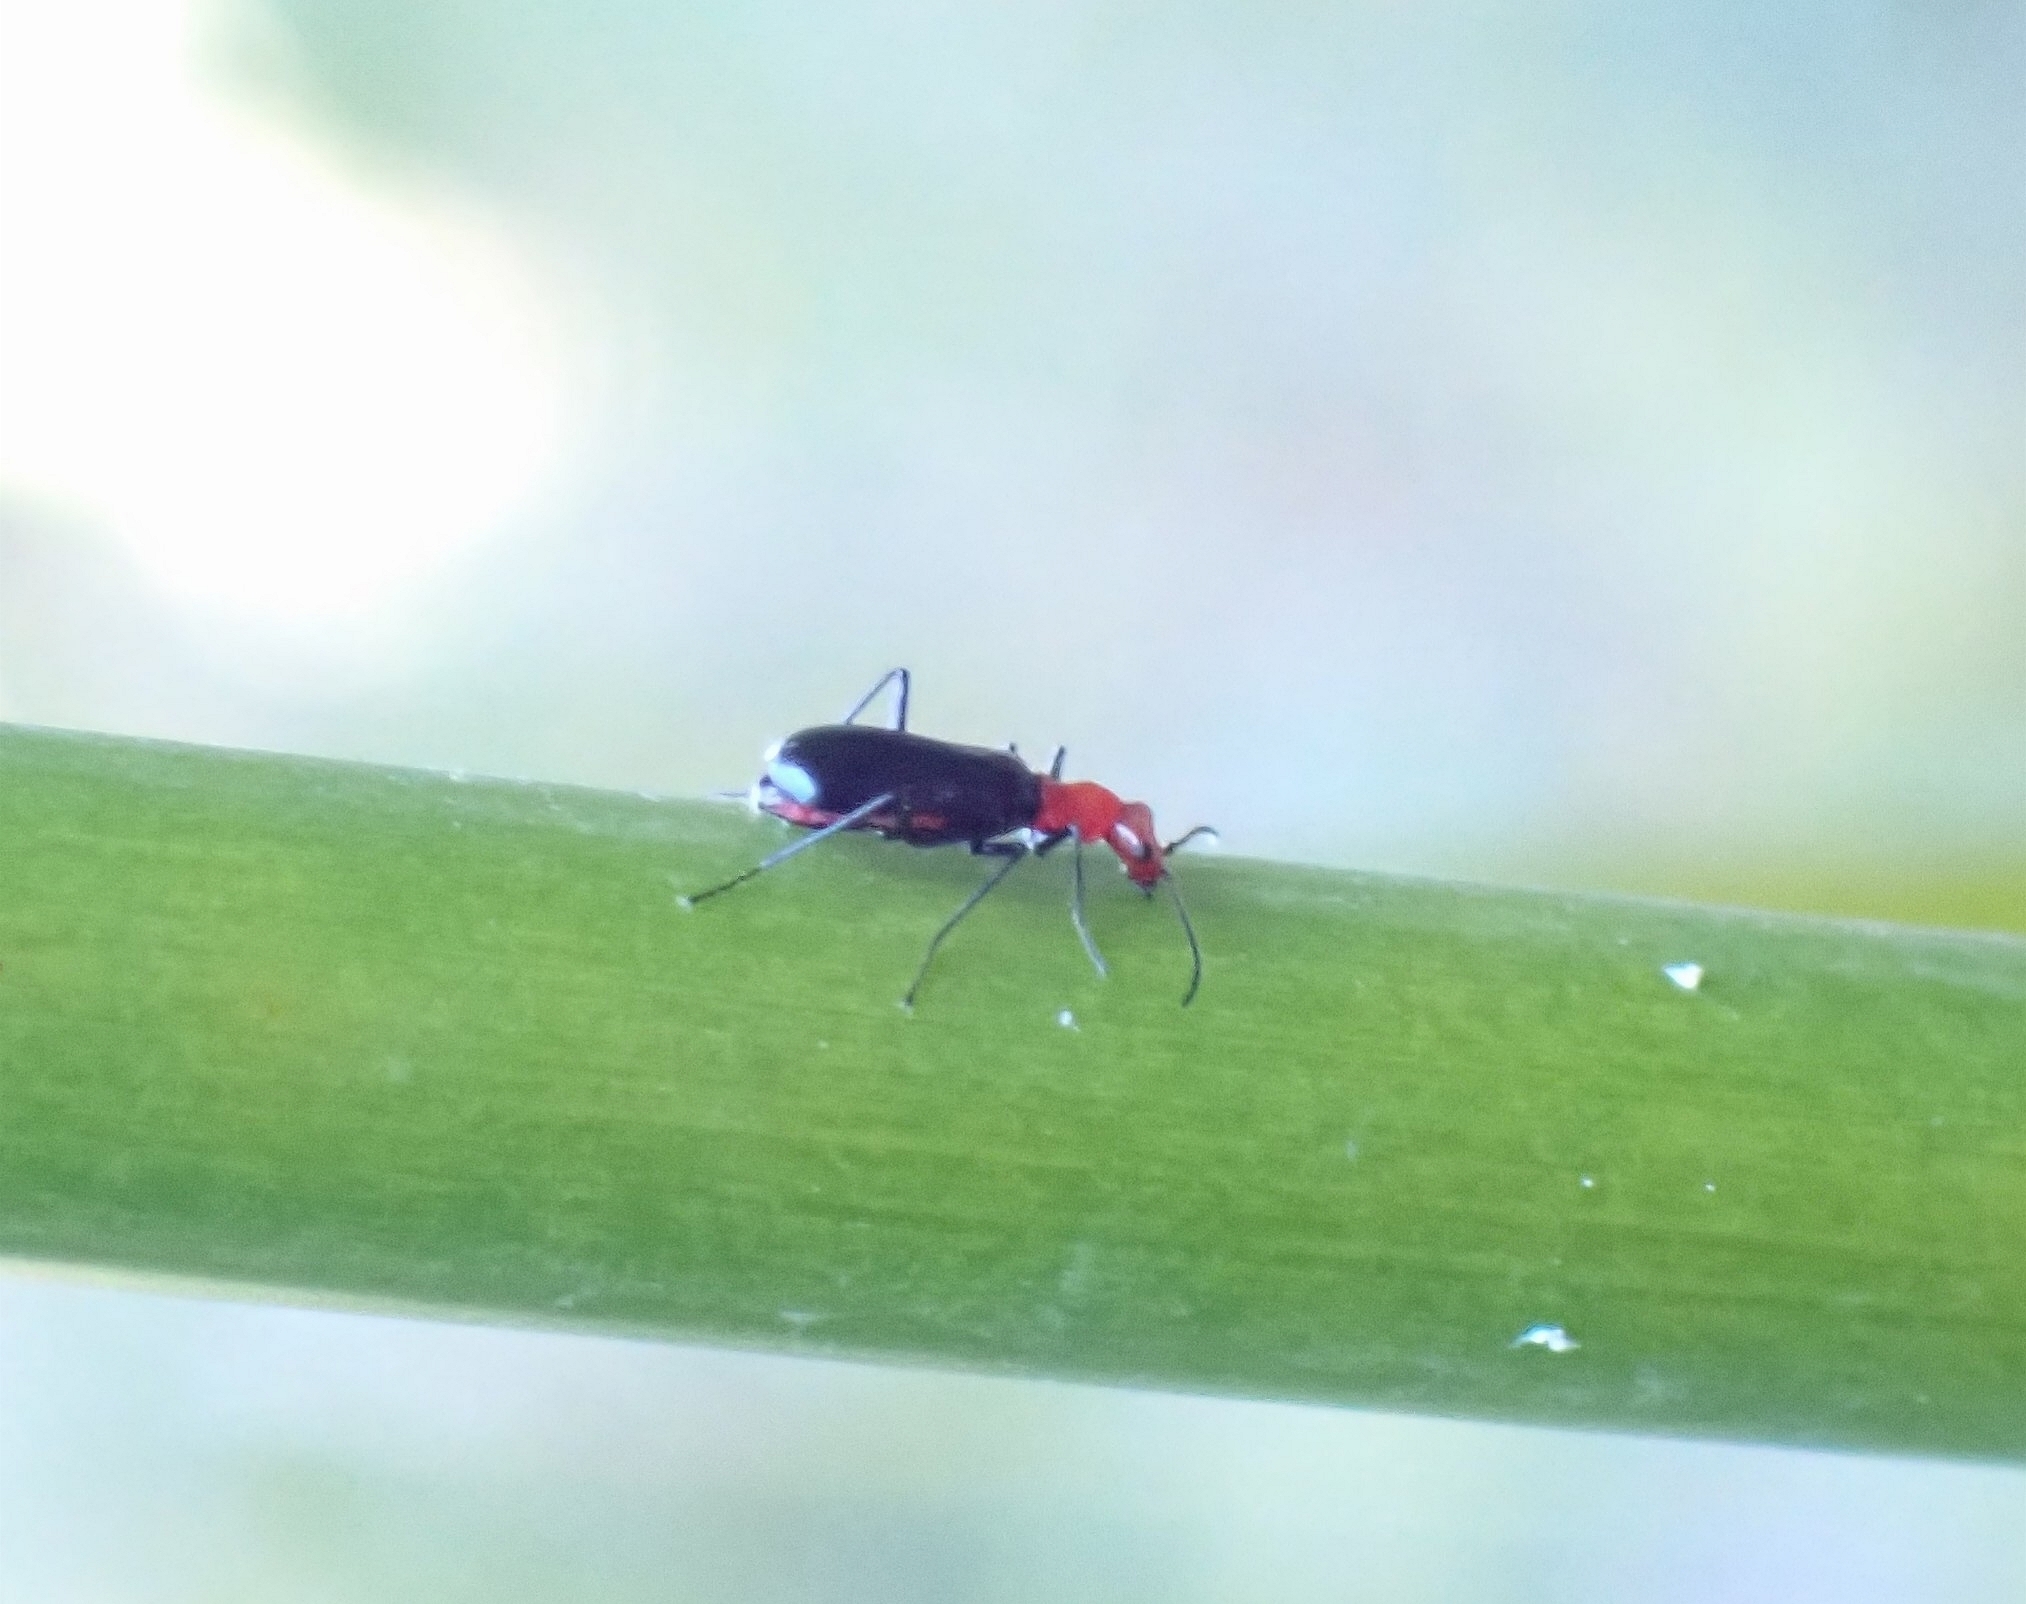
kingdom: Animalia
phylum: Arthropoda
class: Insecta
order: Coleoptera
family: Malachiidae
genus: Cephalogonia
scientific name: Cephalogonia satanas
